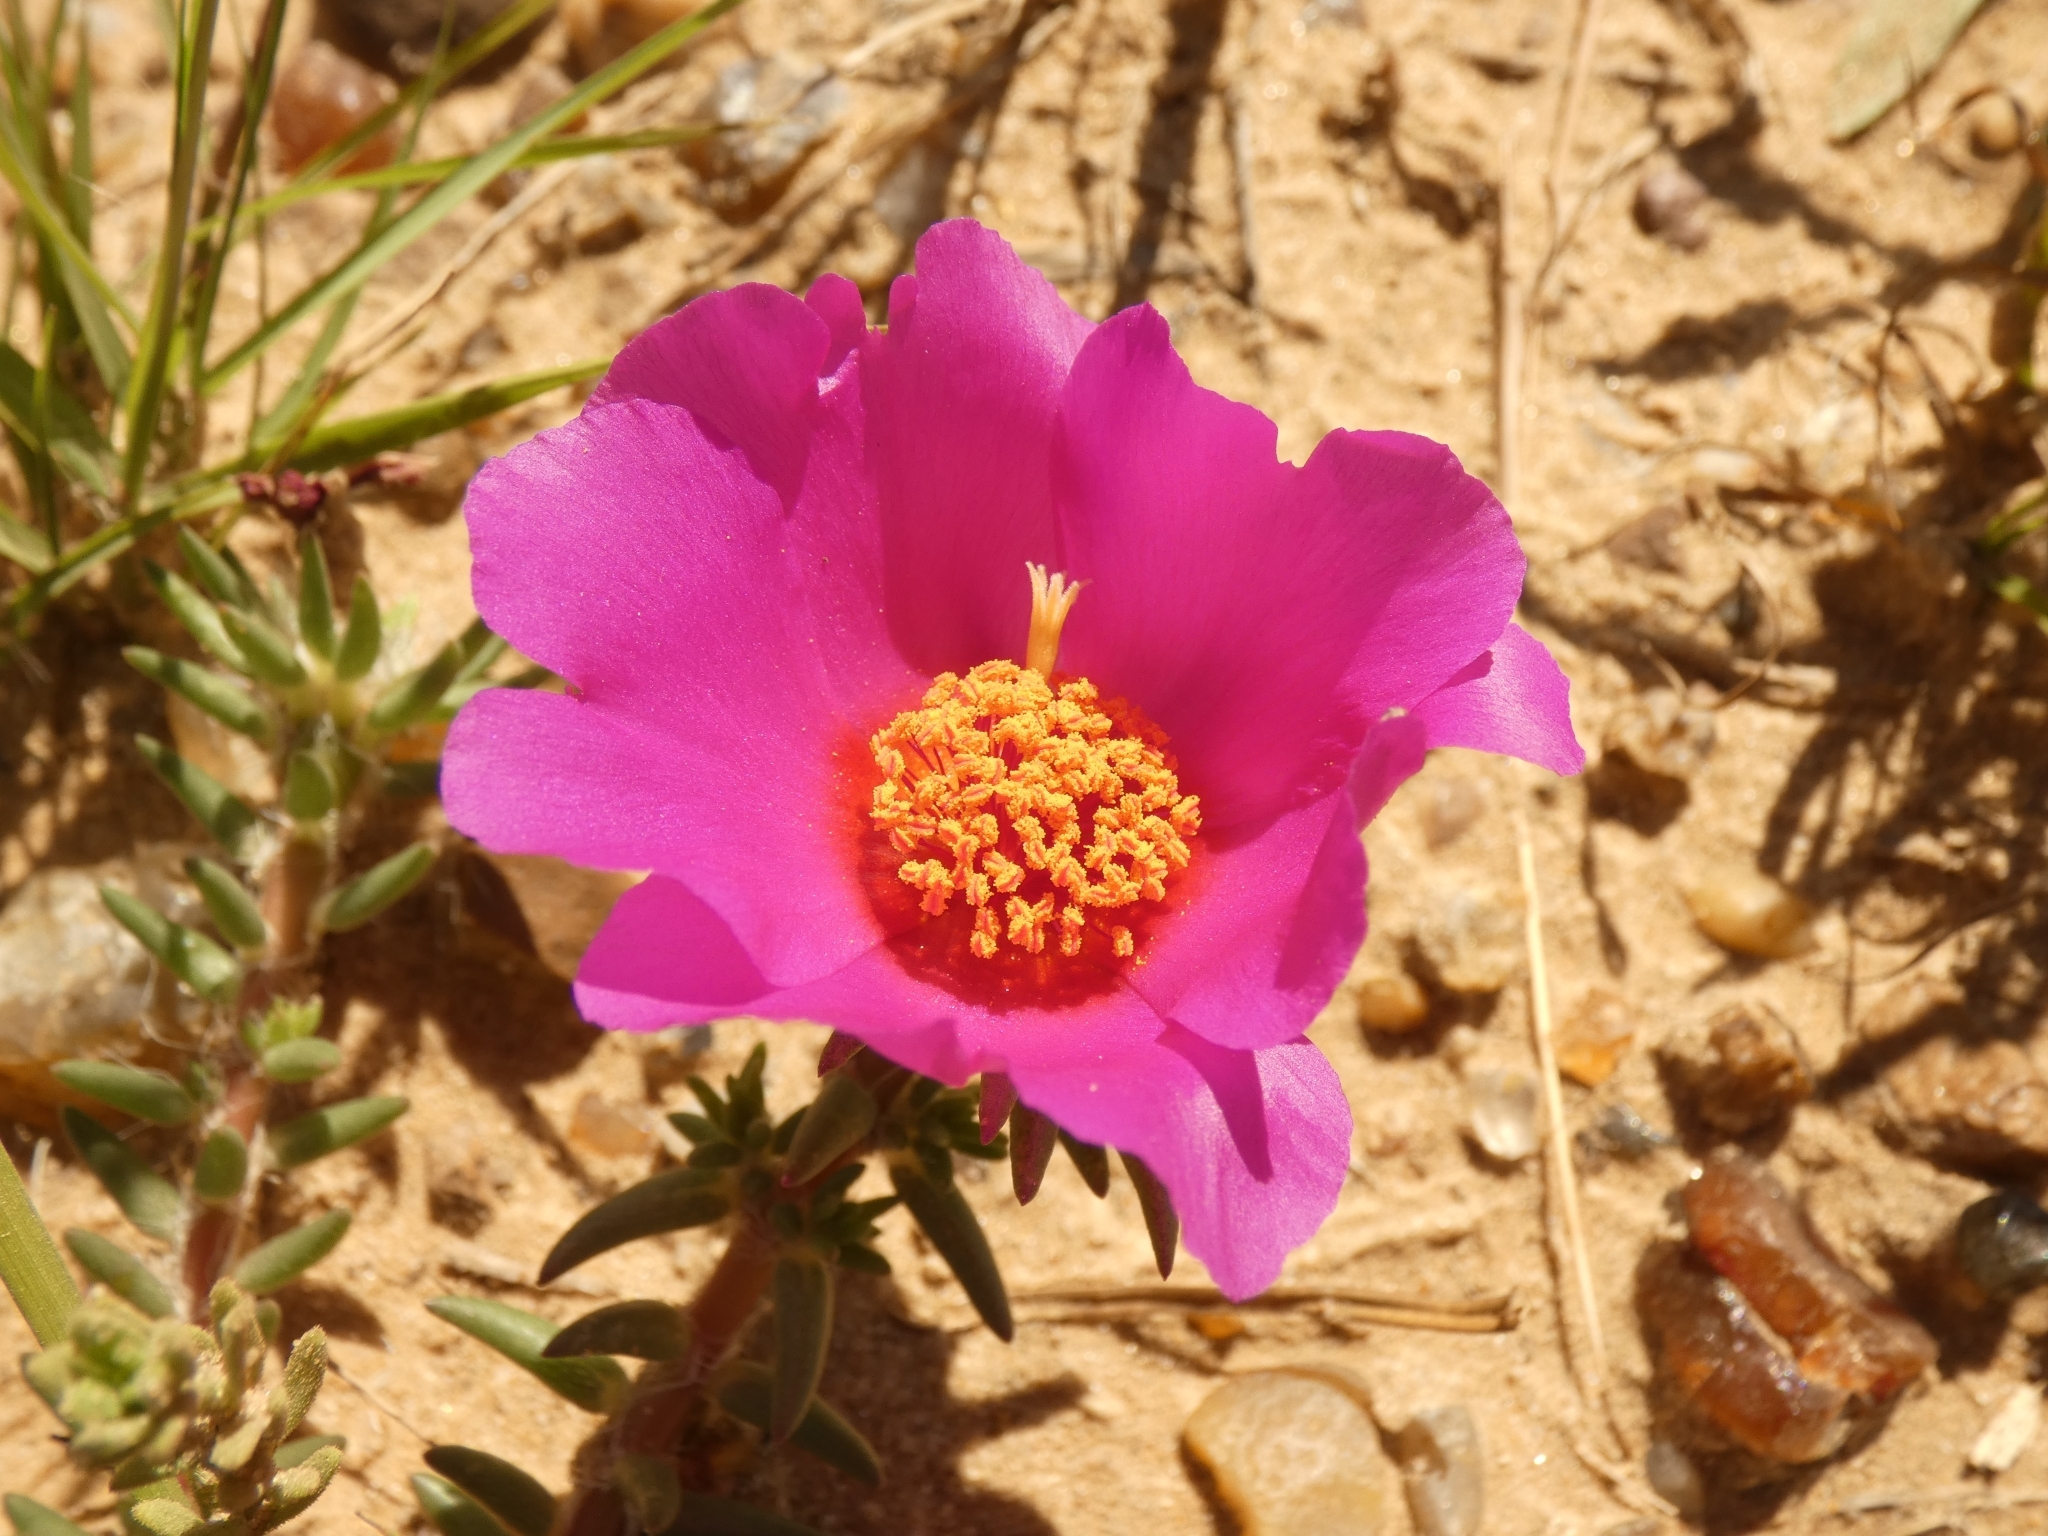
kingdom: Plantae
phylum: Tracheophyta
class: Magnoliopsida
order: Caryophyllales
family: Portulacaceae
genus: Portulaca
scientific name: Portulaca gilliesii
